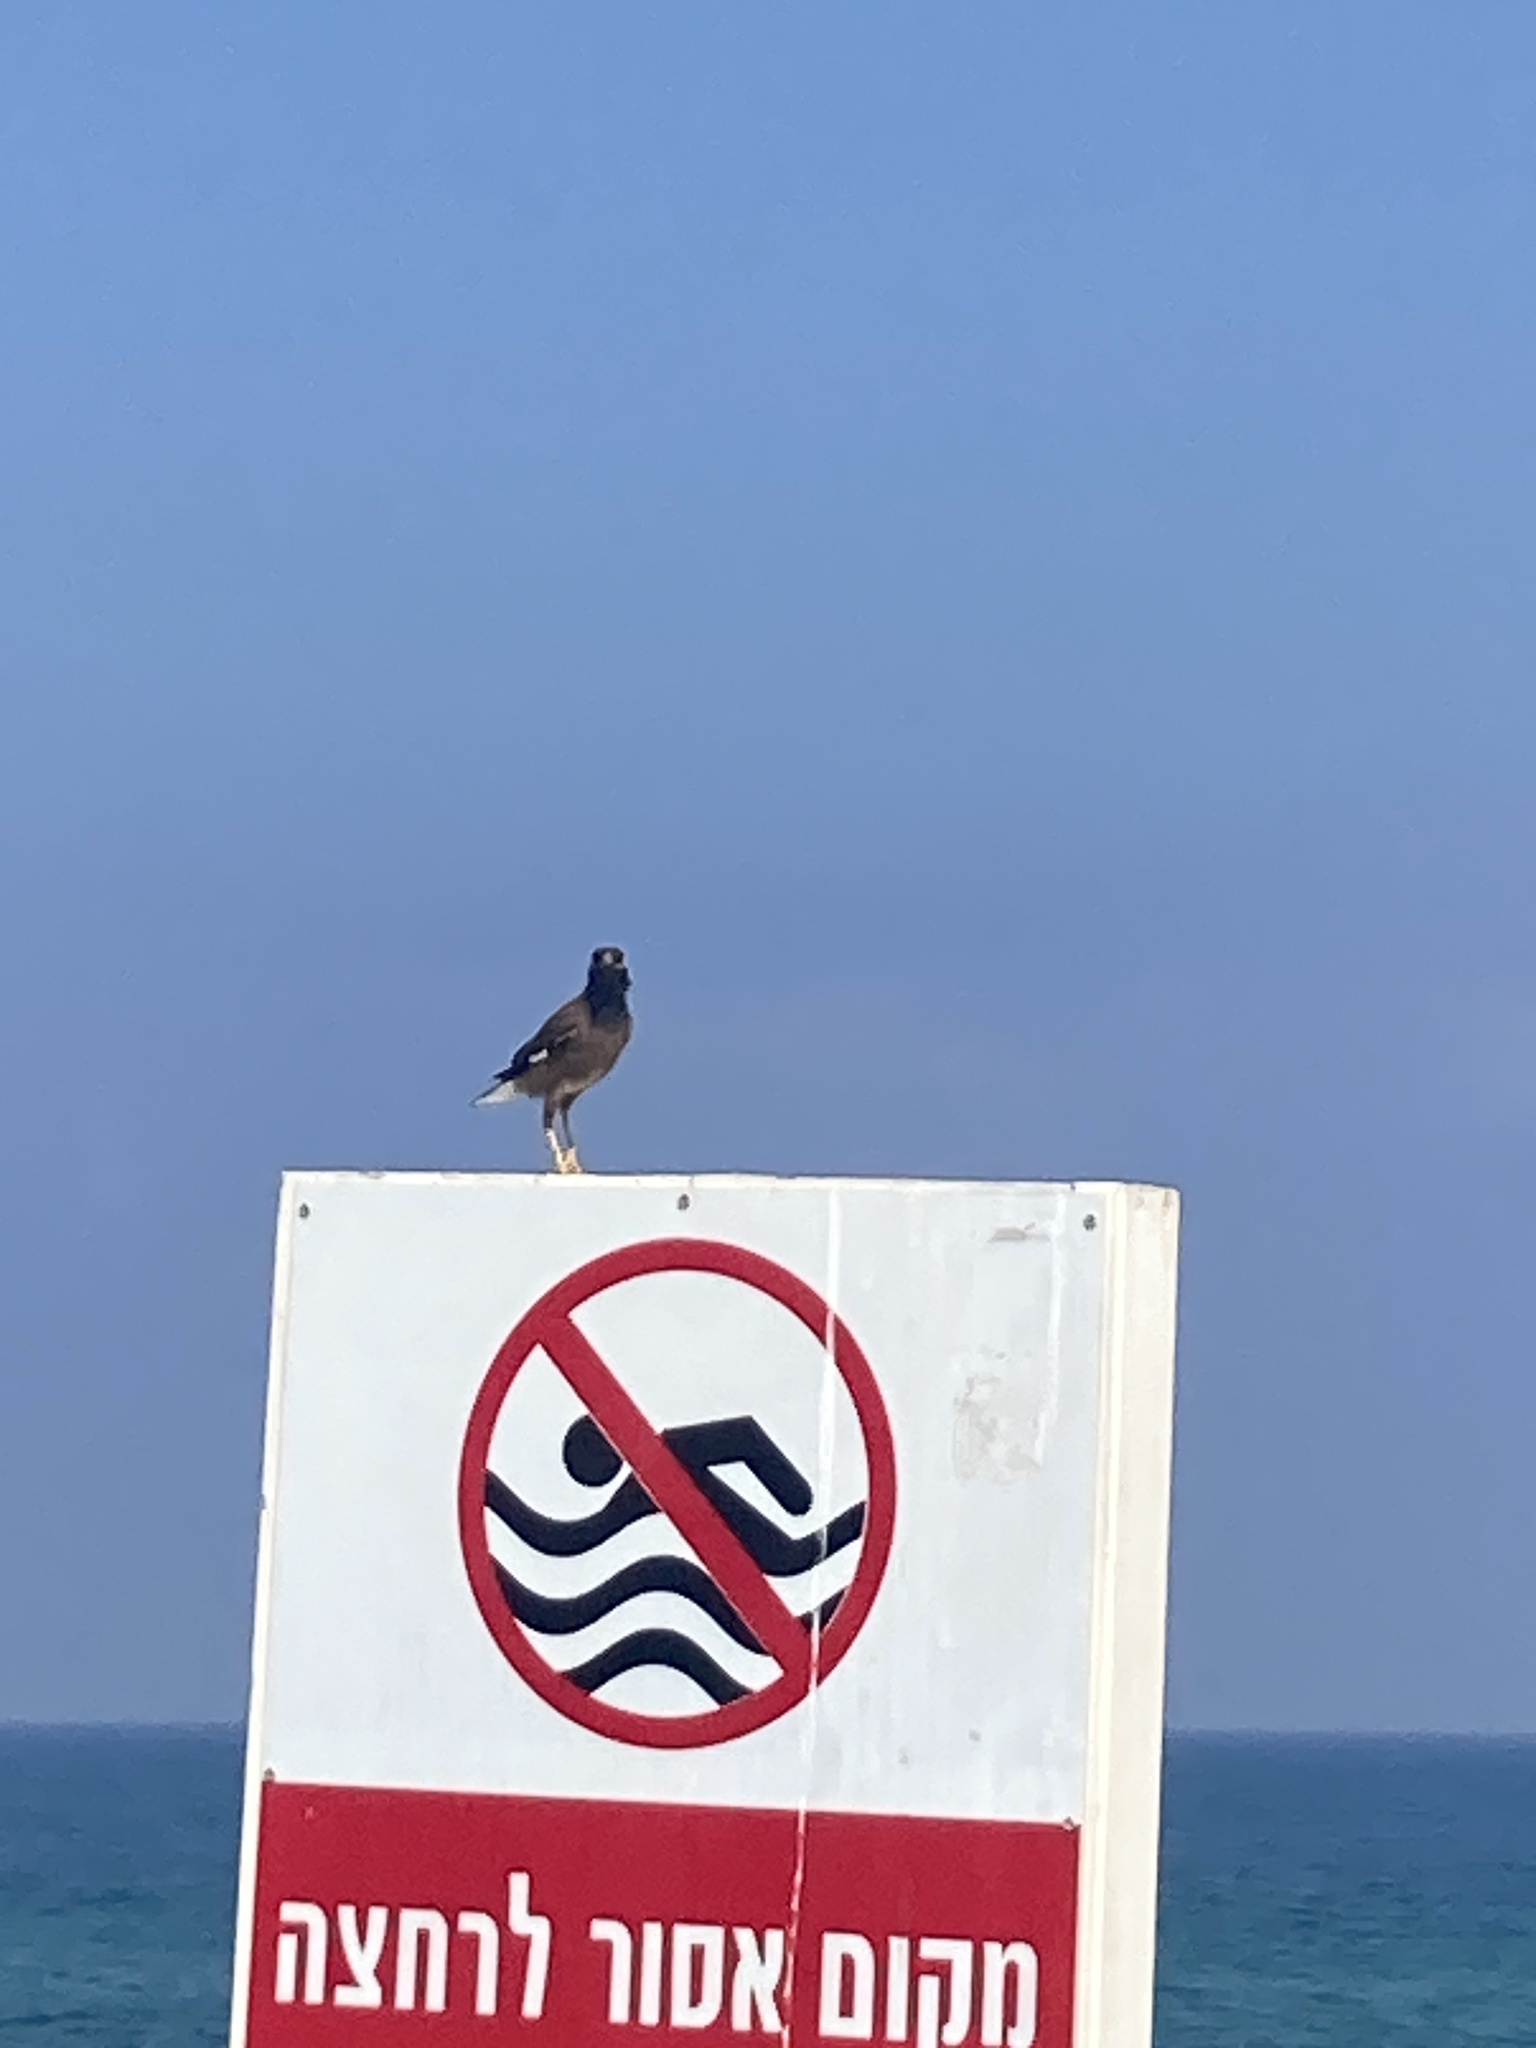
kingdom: Animalia
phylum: Chordata
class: Aves
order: Passeriformes
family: Sturnidae
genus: Acridotheres
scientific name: Acridotheres tristis
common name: Common myna
